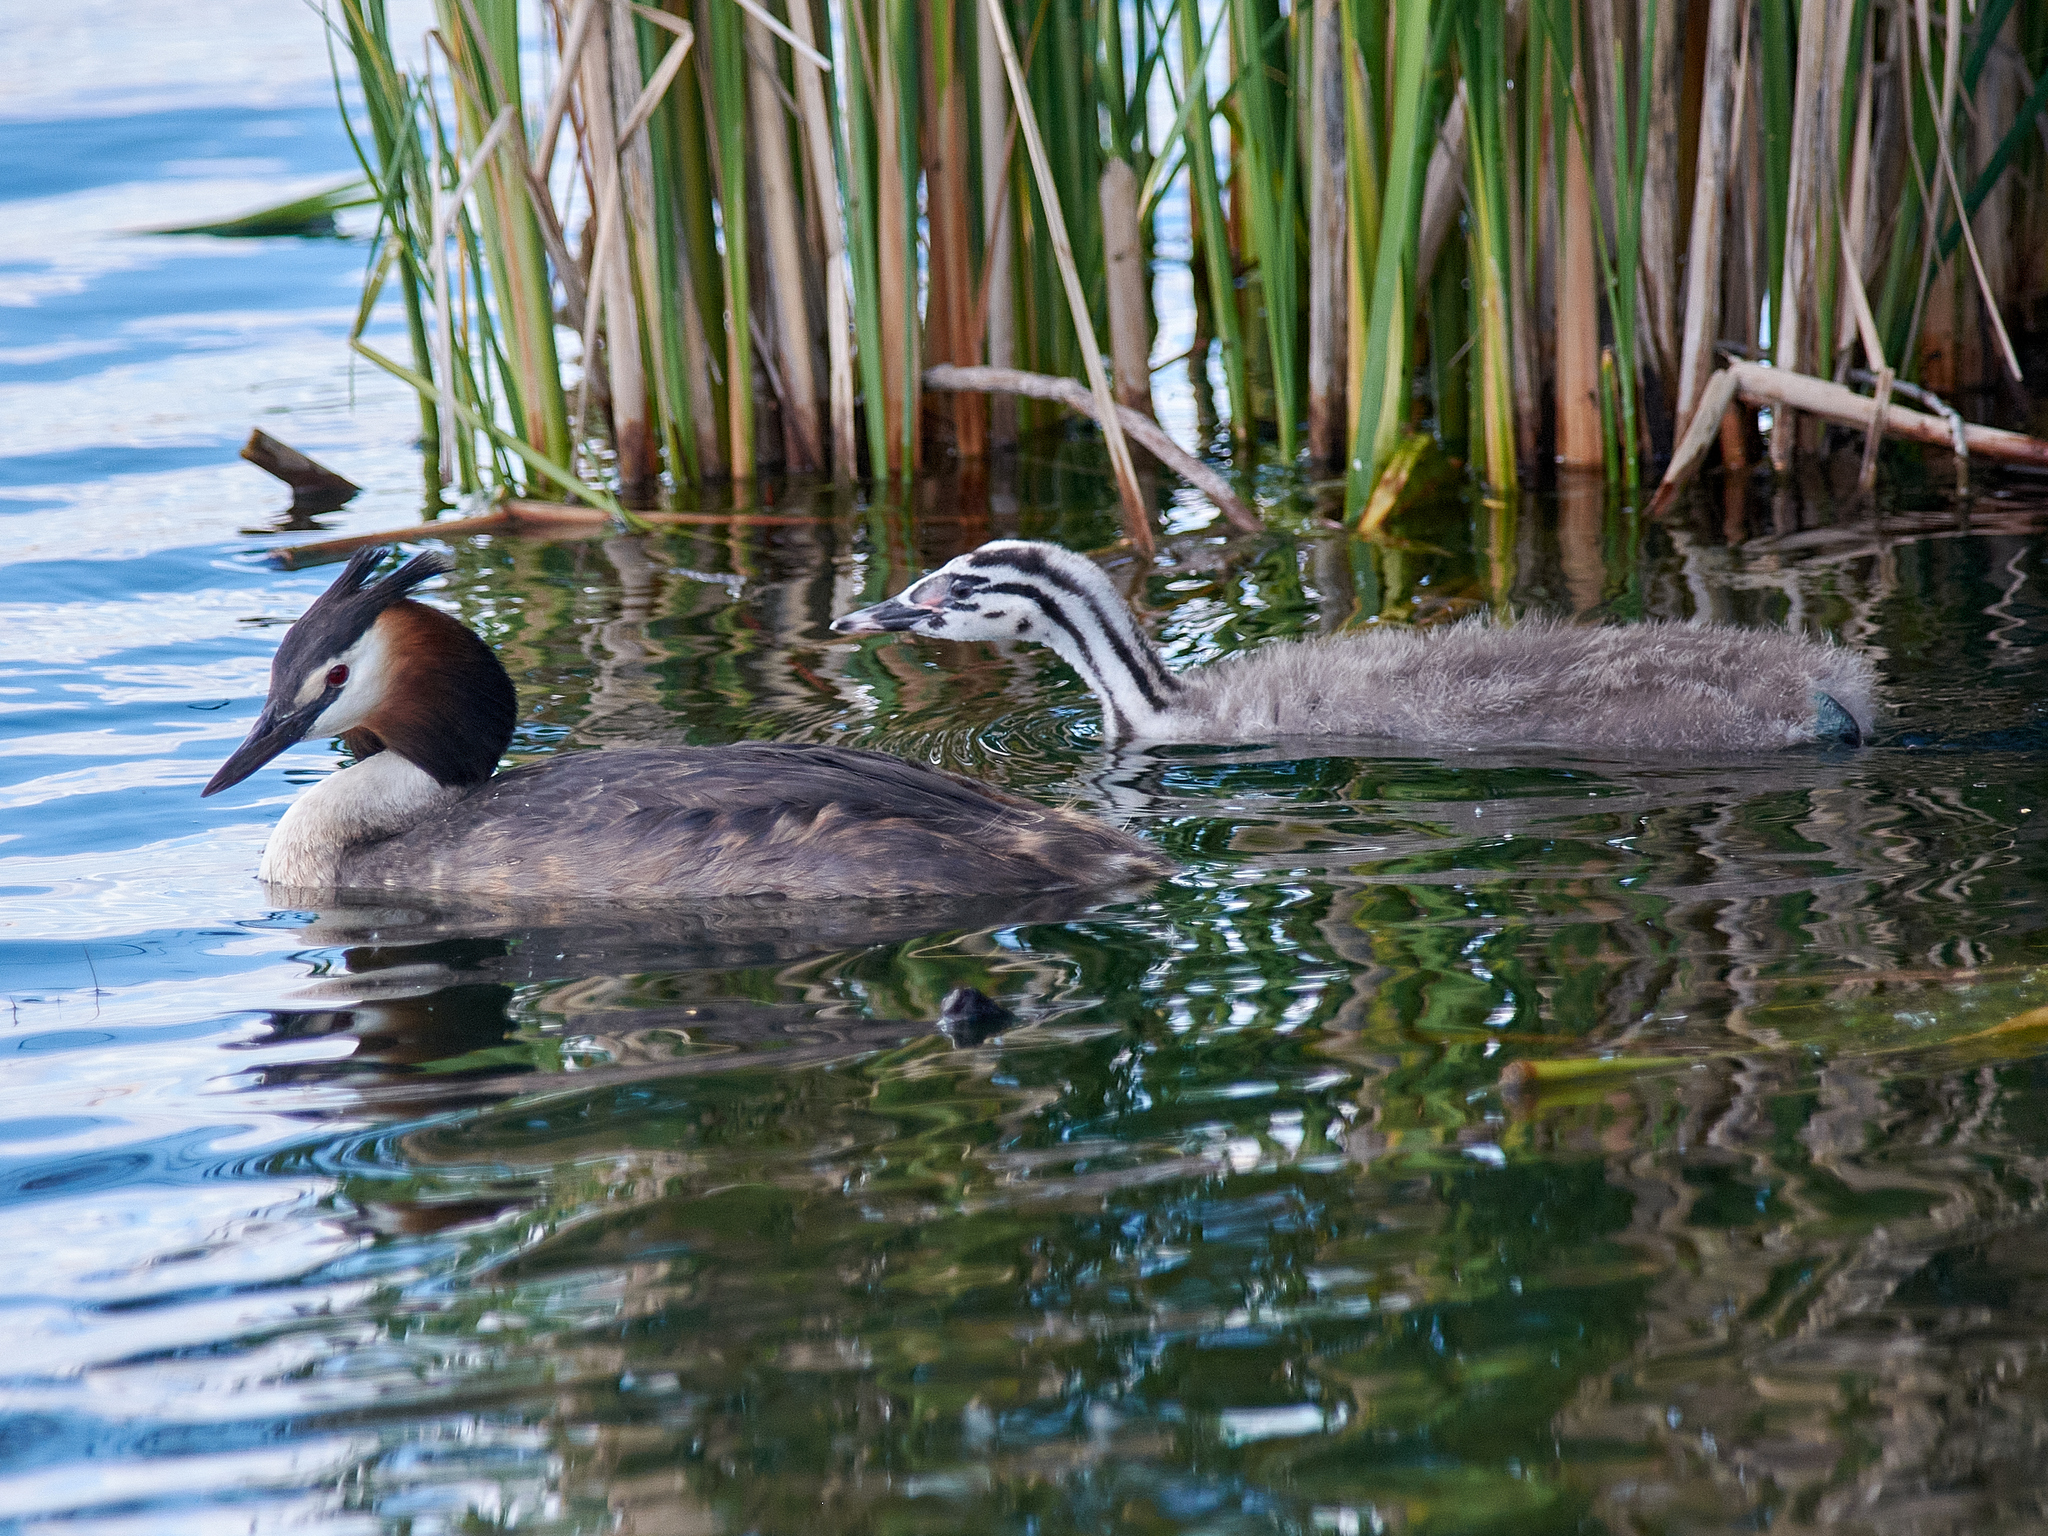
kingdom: Animalia
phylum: Chordata
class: Aves
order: Podicipediformes
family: Podicipedidae
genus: Podiceps
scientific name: Podiceps cristatus
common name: Great crested grebe
